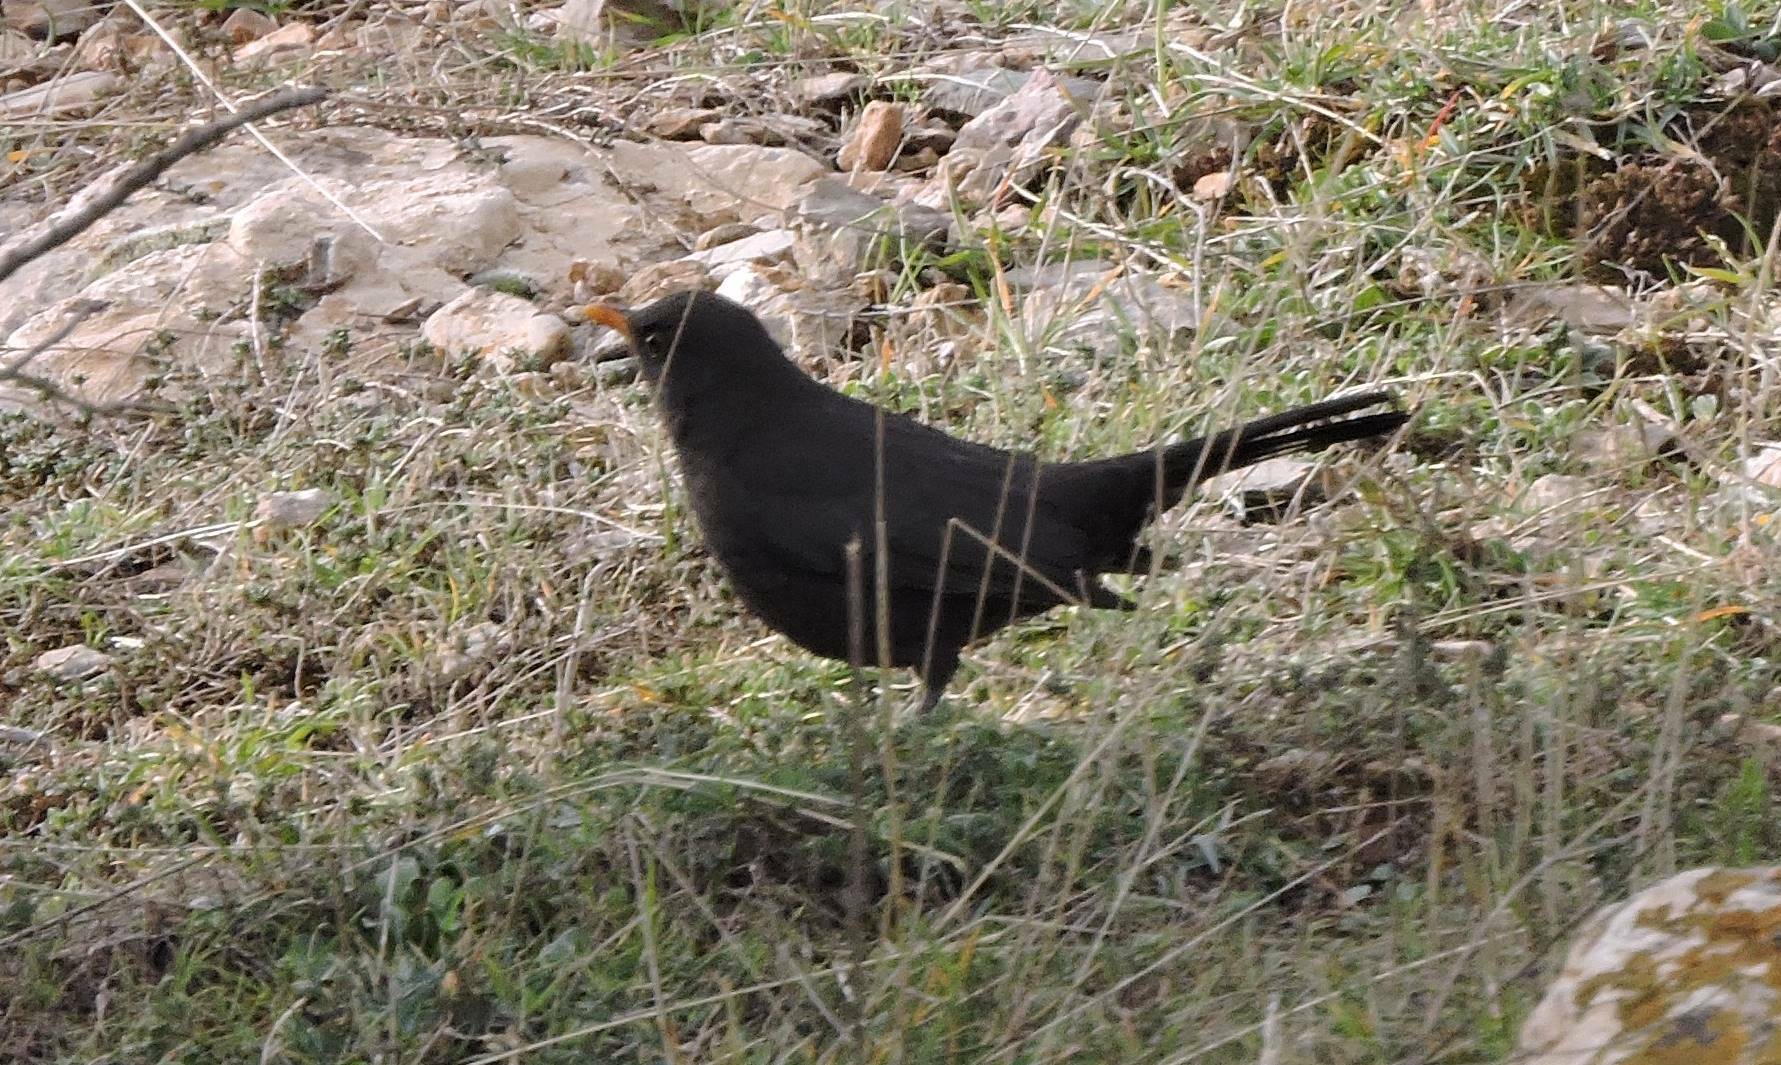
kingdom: Animalia
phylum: Chordata
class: Aves
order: Passeriformes
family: Turdidae
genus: Turdus
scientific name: Turdus merula
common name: Common blackbird
